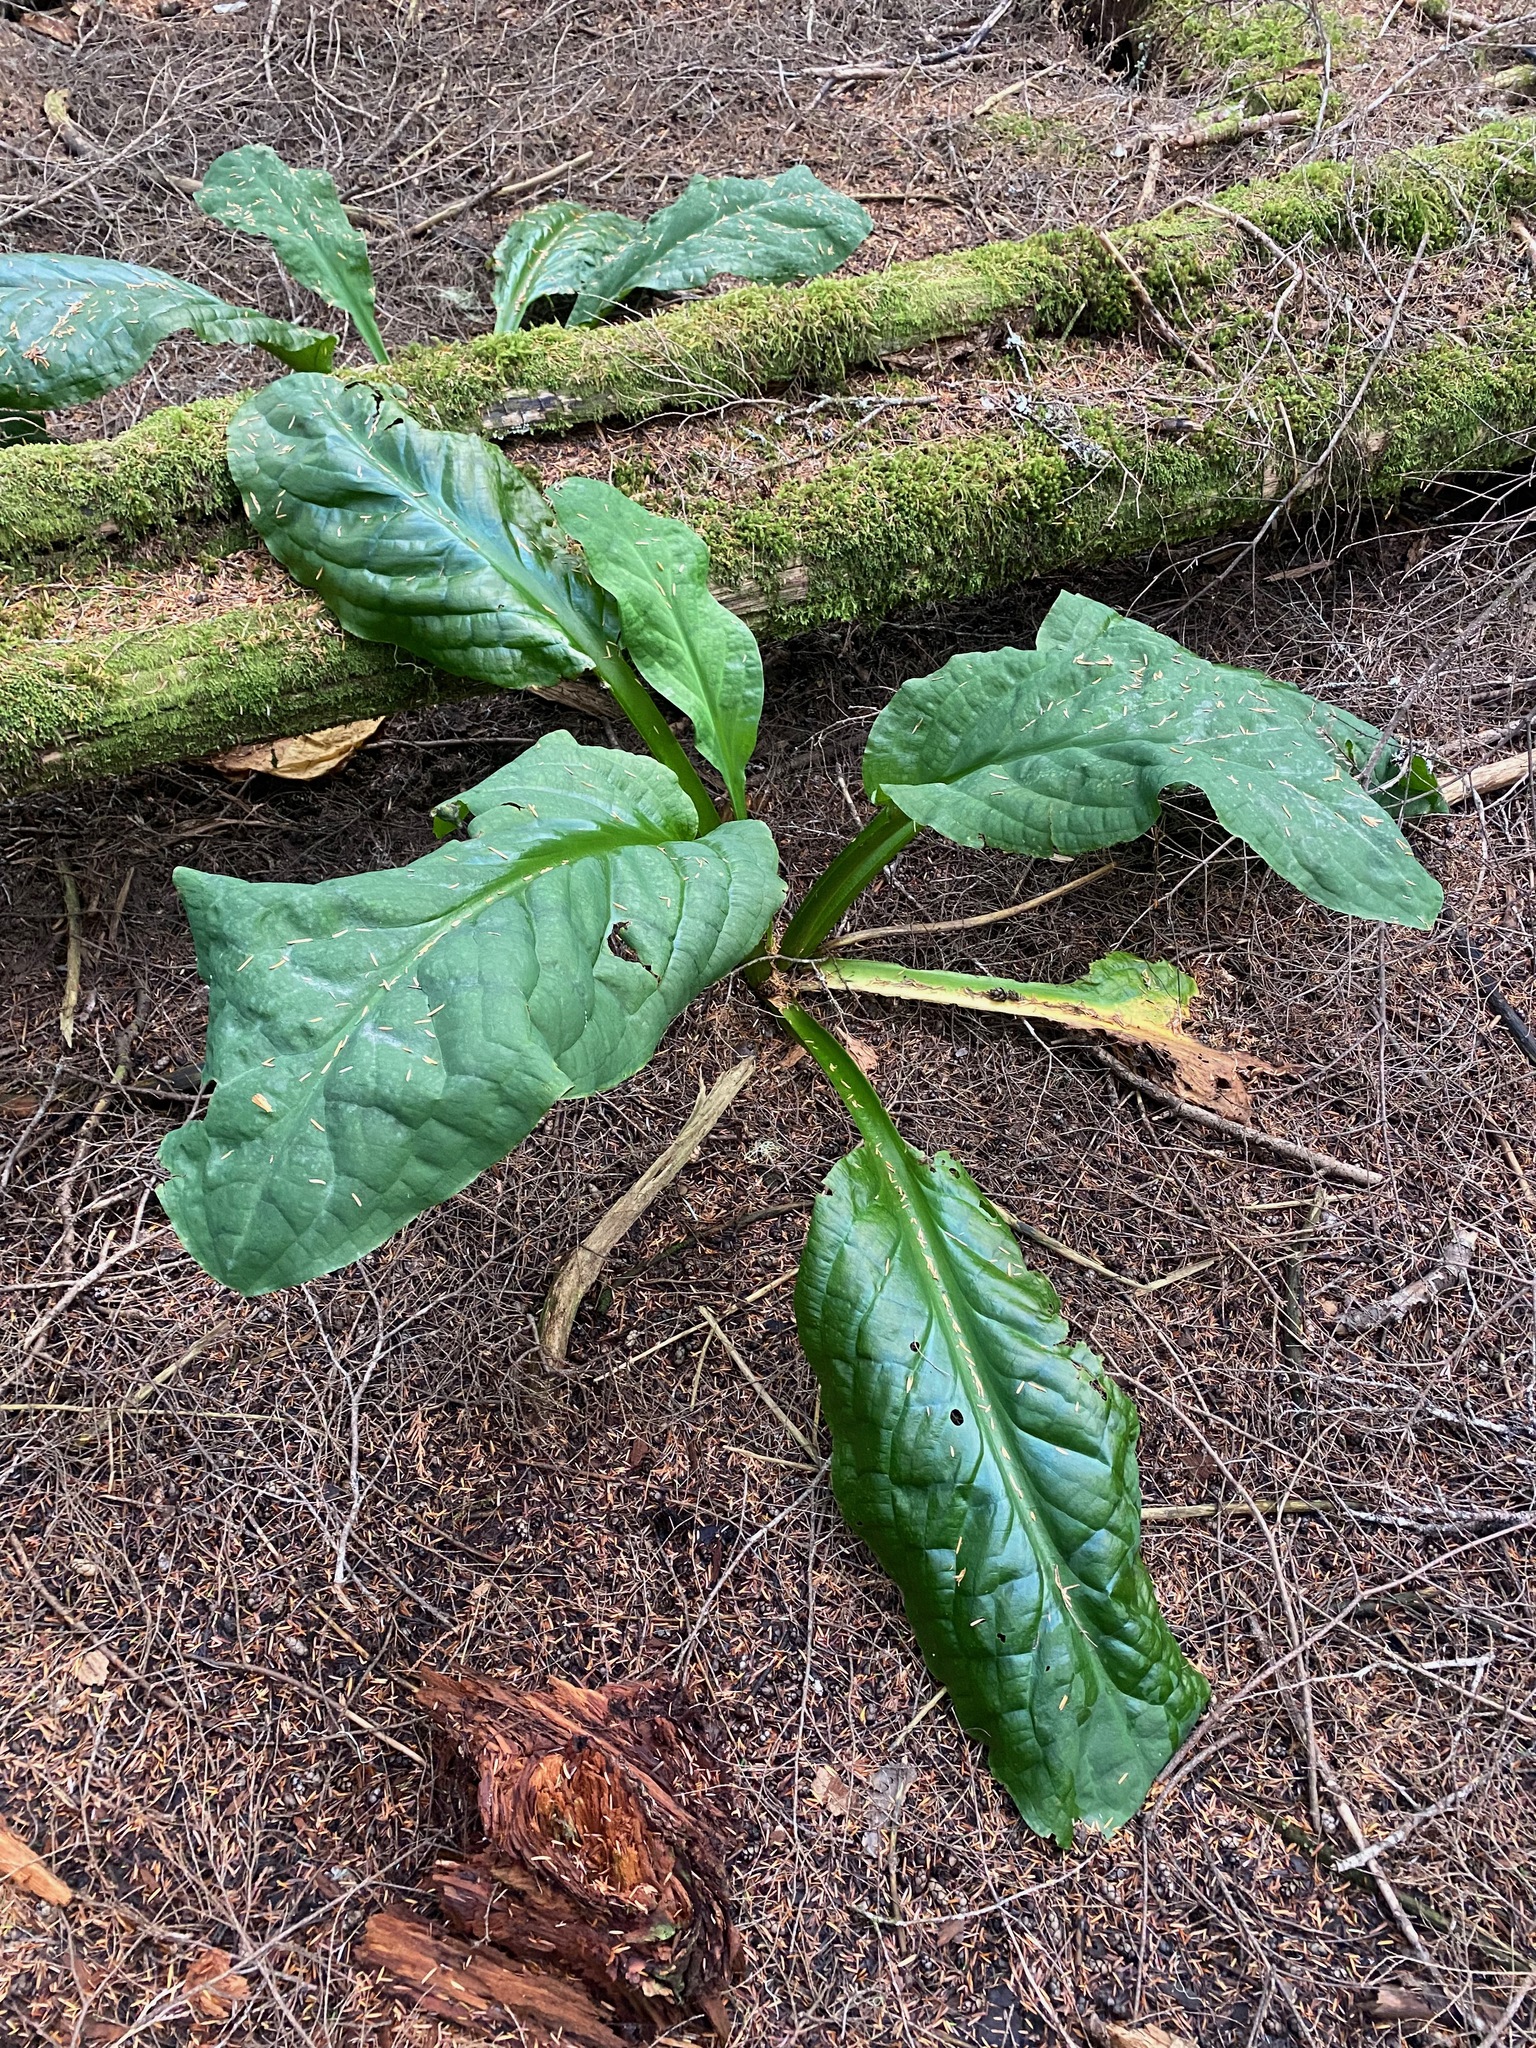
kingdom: Plantae
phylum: Tracheophyta
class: Liliopsida
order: Alismatales
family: Araceae
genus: Lysichiton
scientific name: Lysichiton americanus
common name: American skunk cabbage
